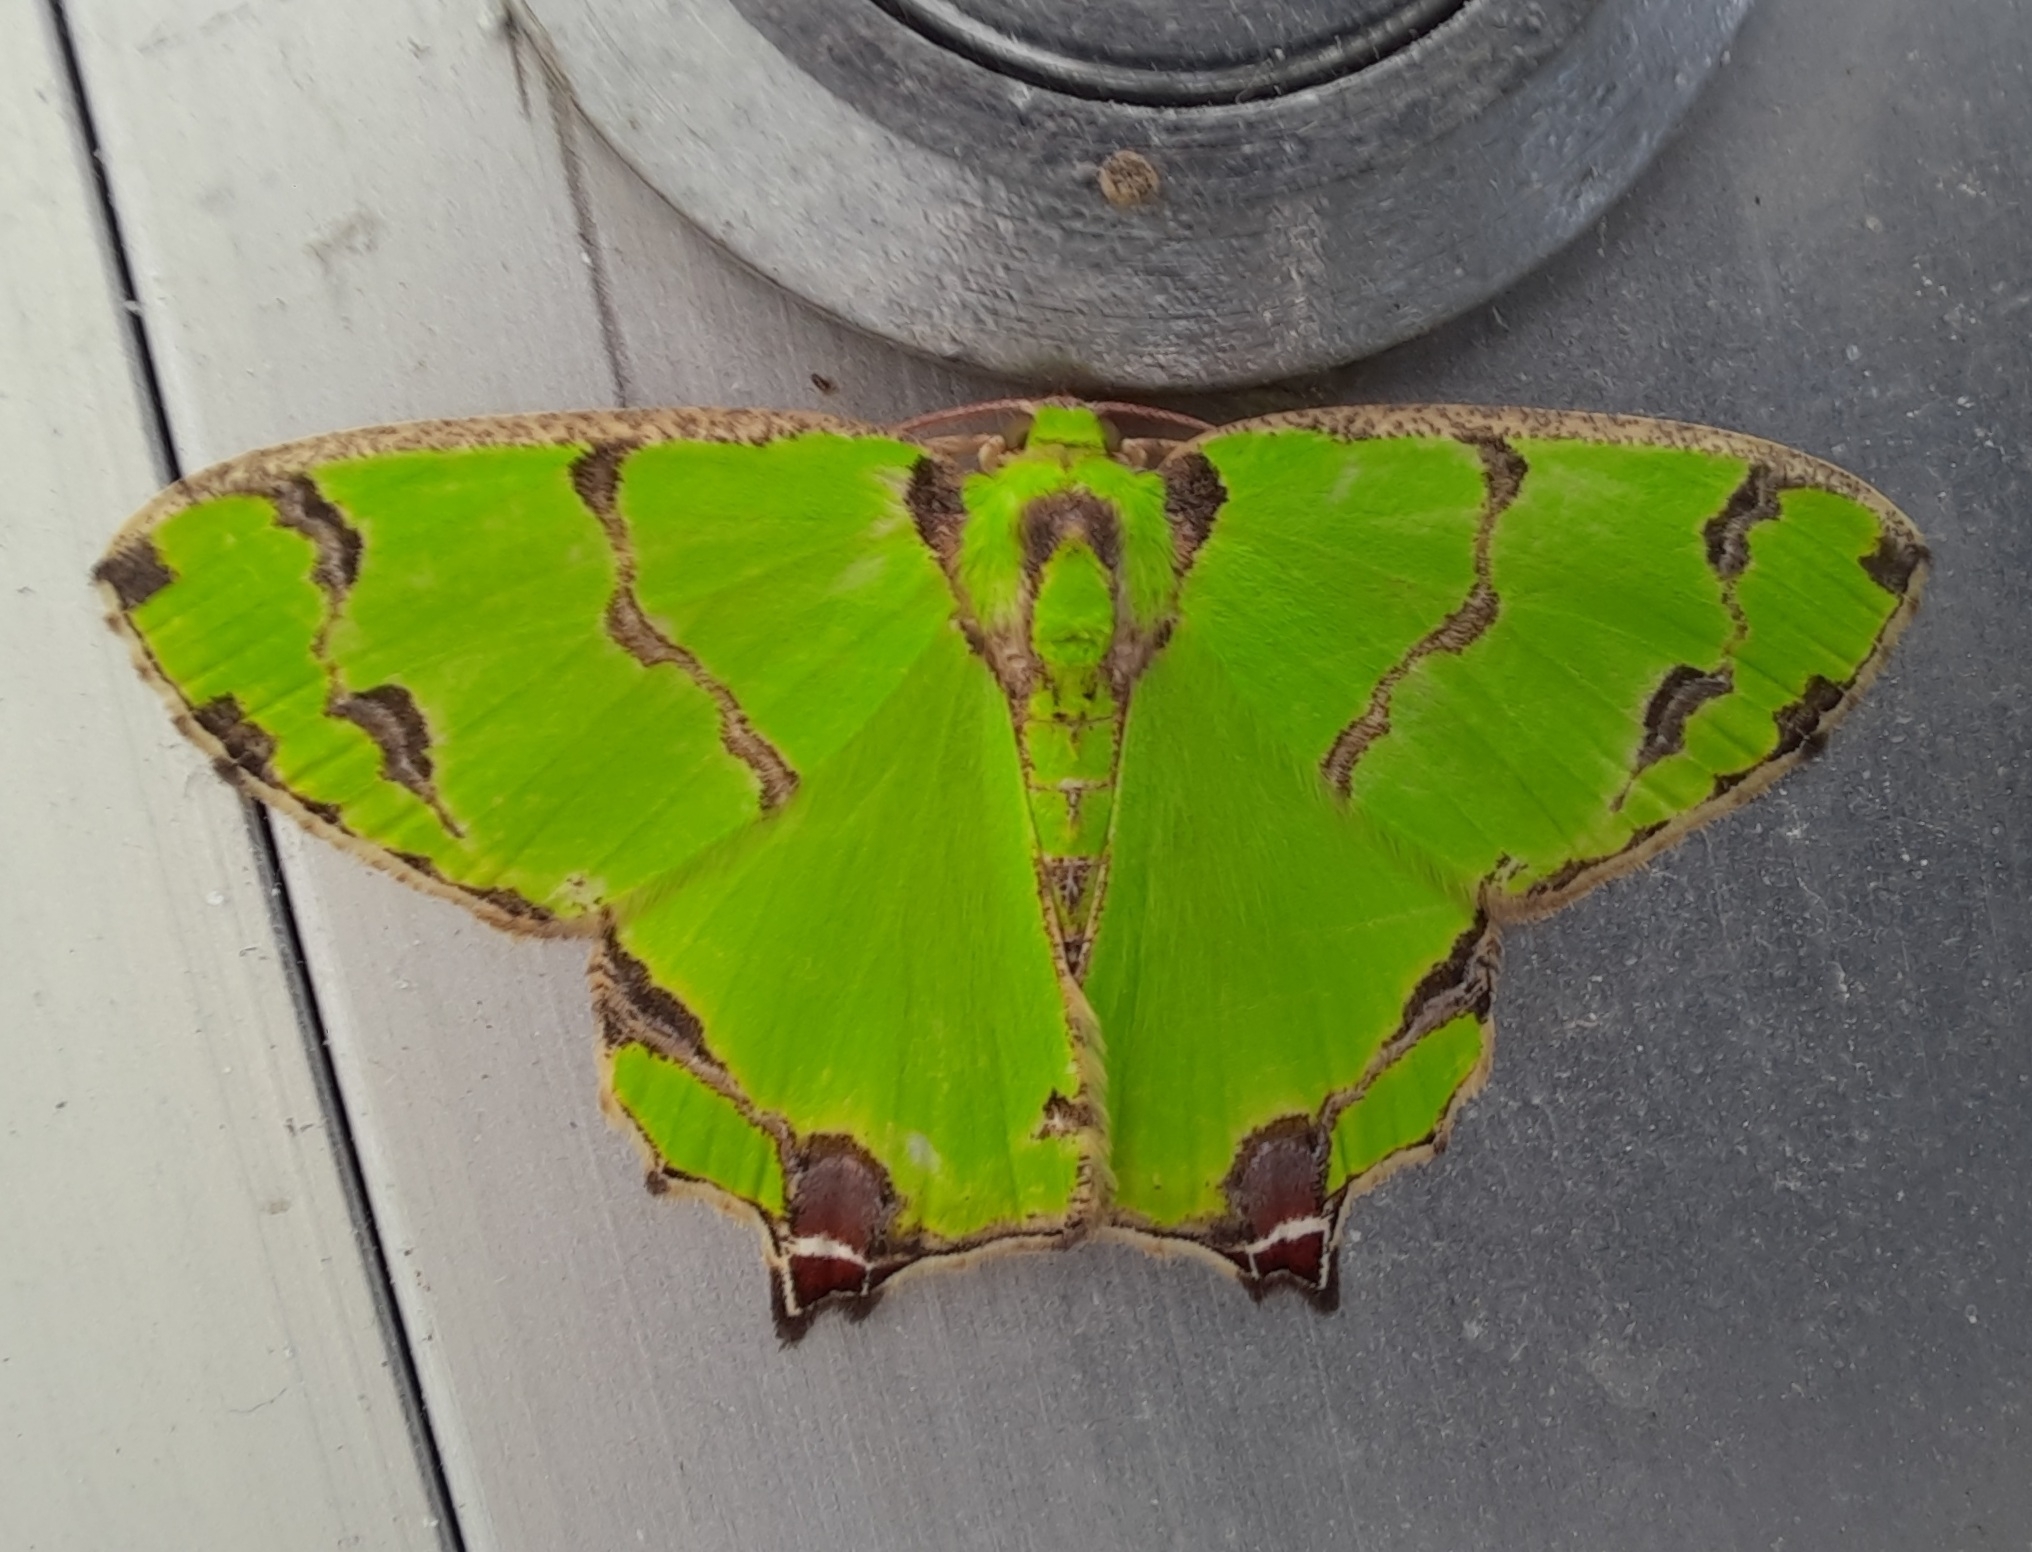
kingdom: Animalia
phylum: Arthropoda
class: Insecta
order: Lepidoptera
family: Geometridae
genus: Agathia
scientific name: Agathia hemithearia
